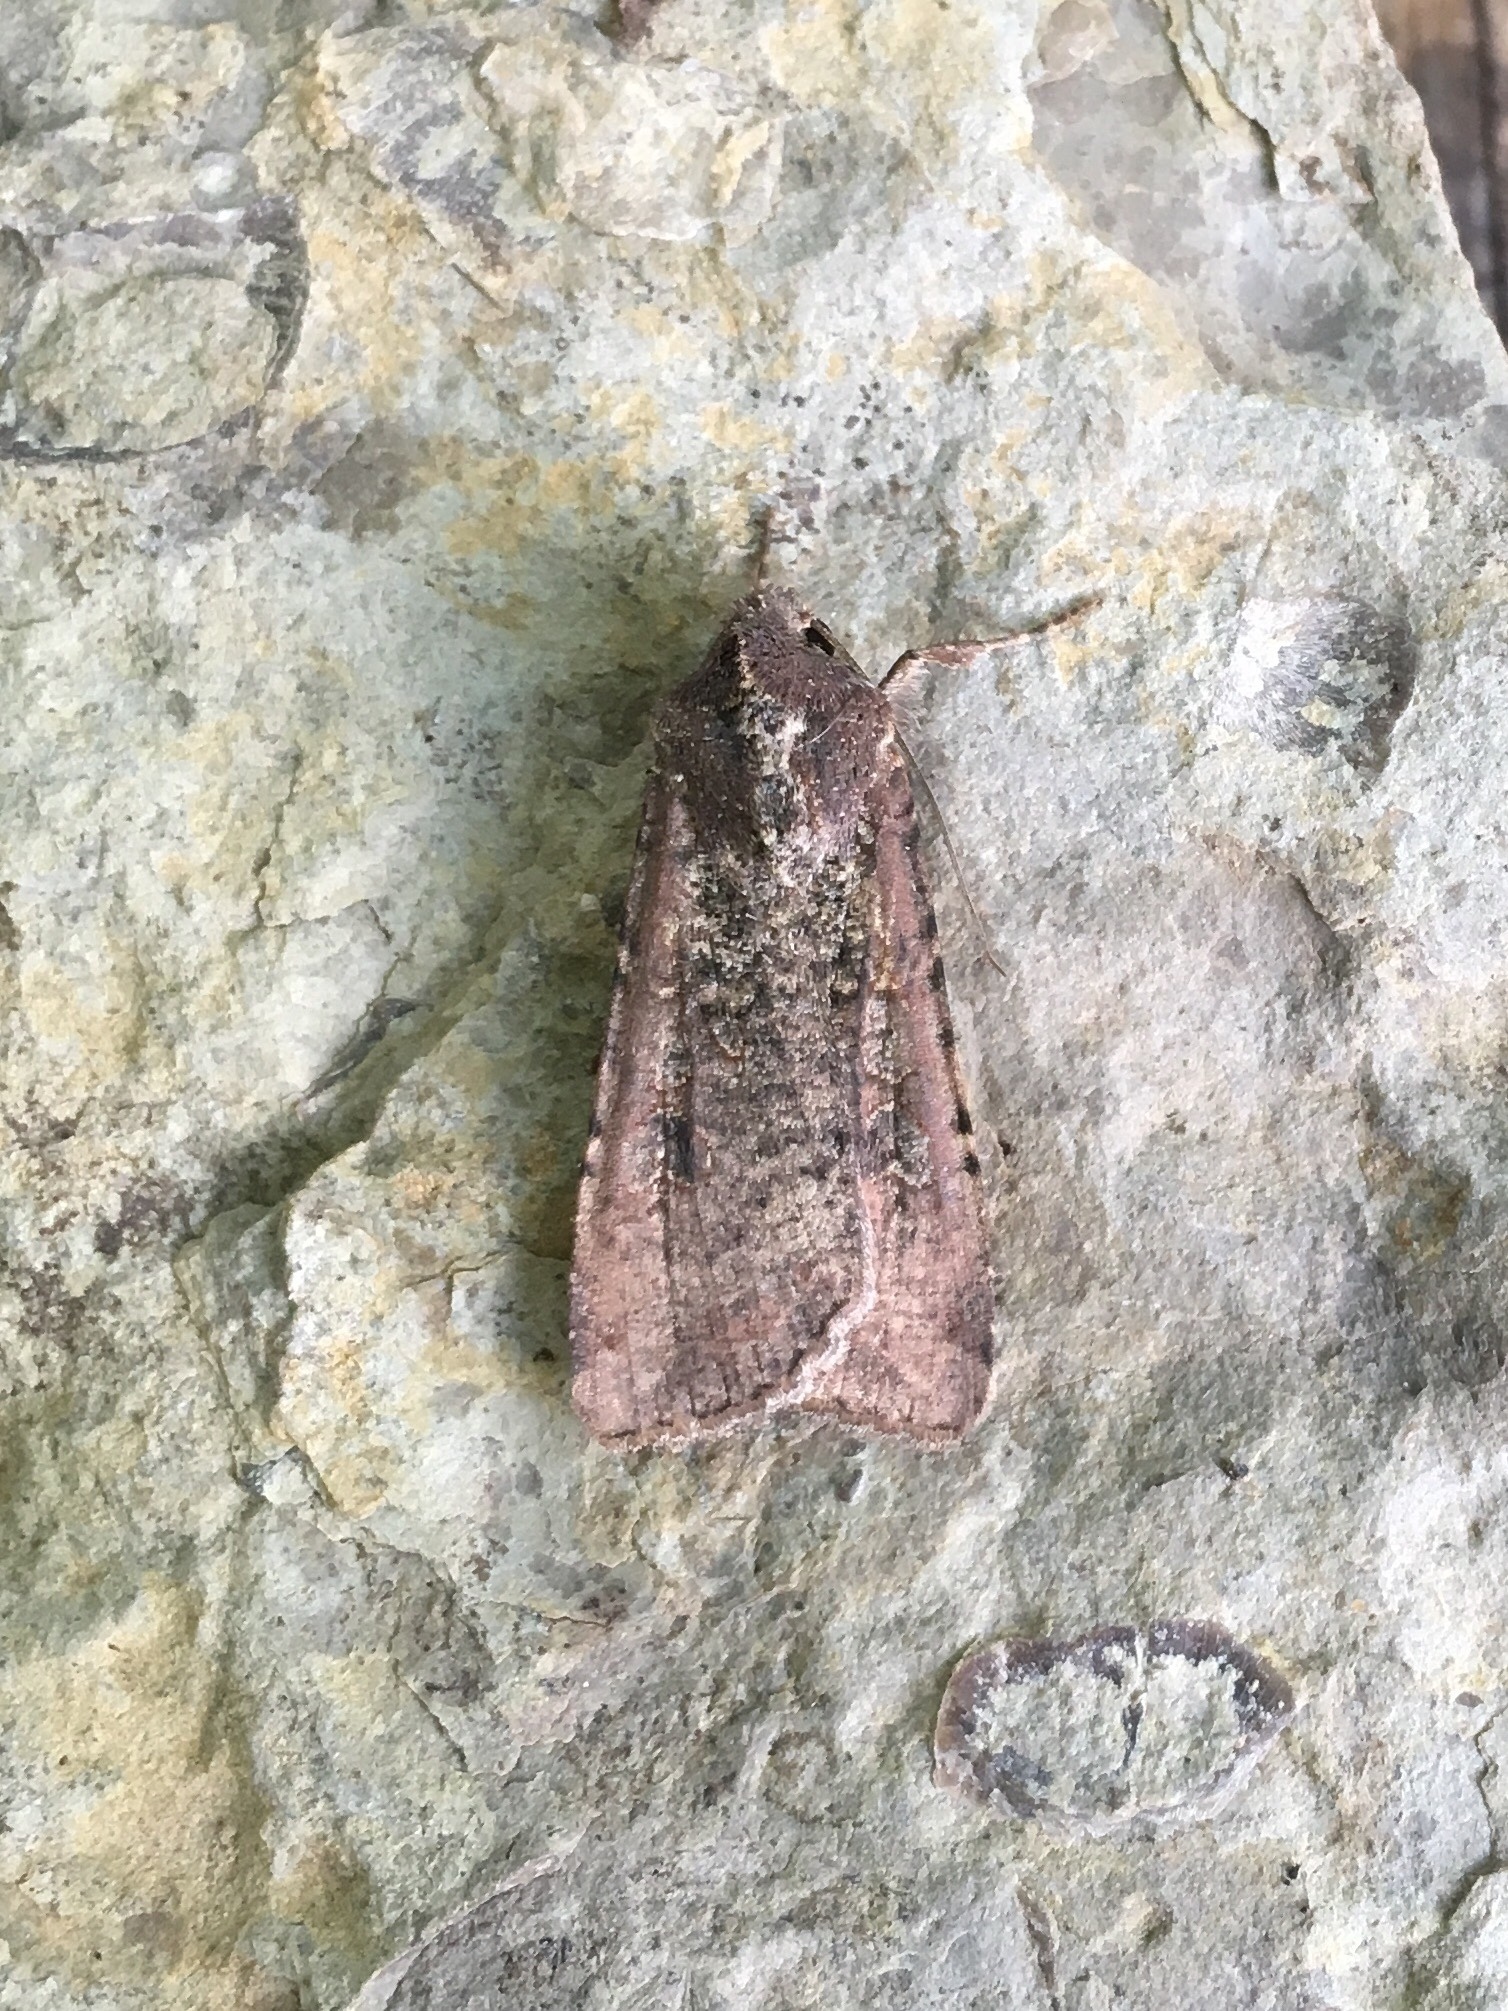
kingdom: Animalia
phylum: Arthropoda
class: Insecta
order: Lepidoptera
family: Noctuidae
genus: Peridroma
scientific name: Peridroma saucia
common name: Pearly underwing
